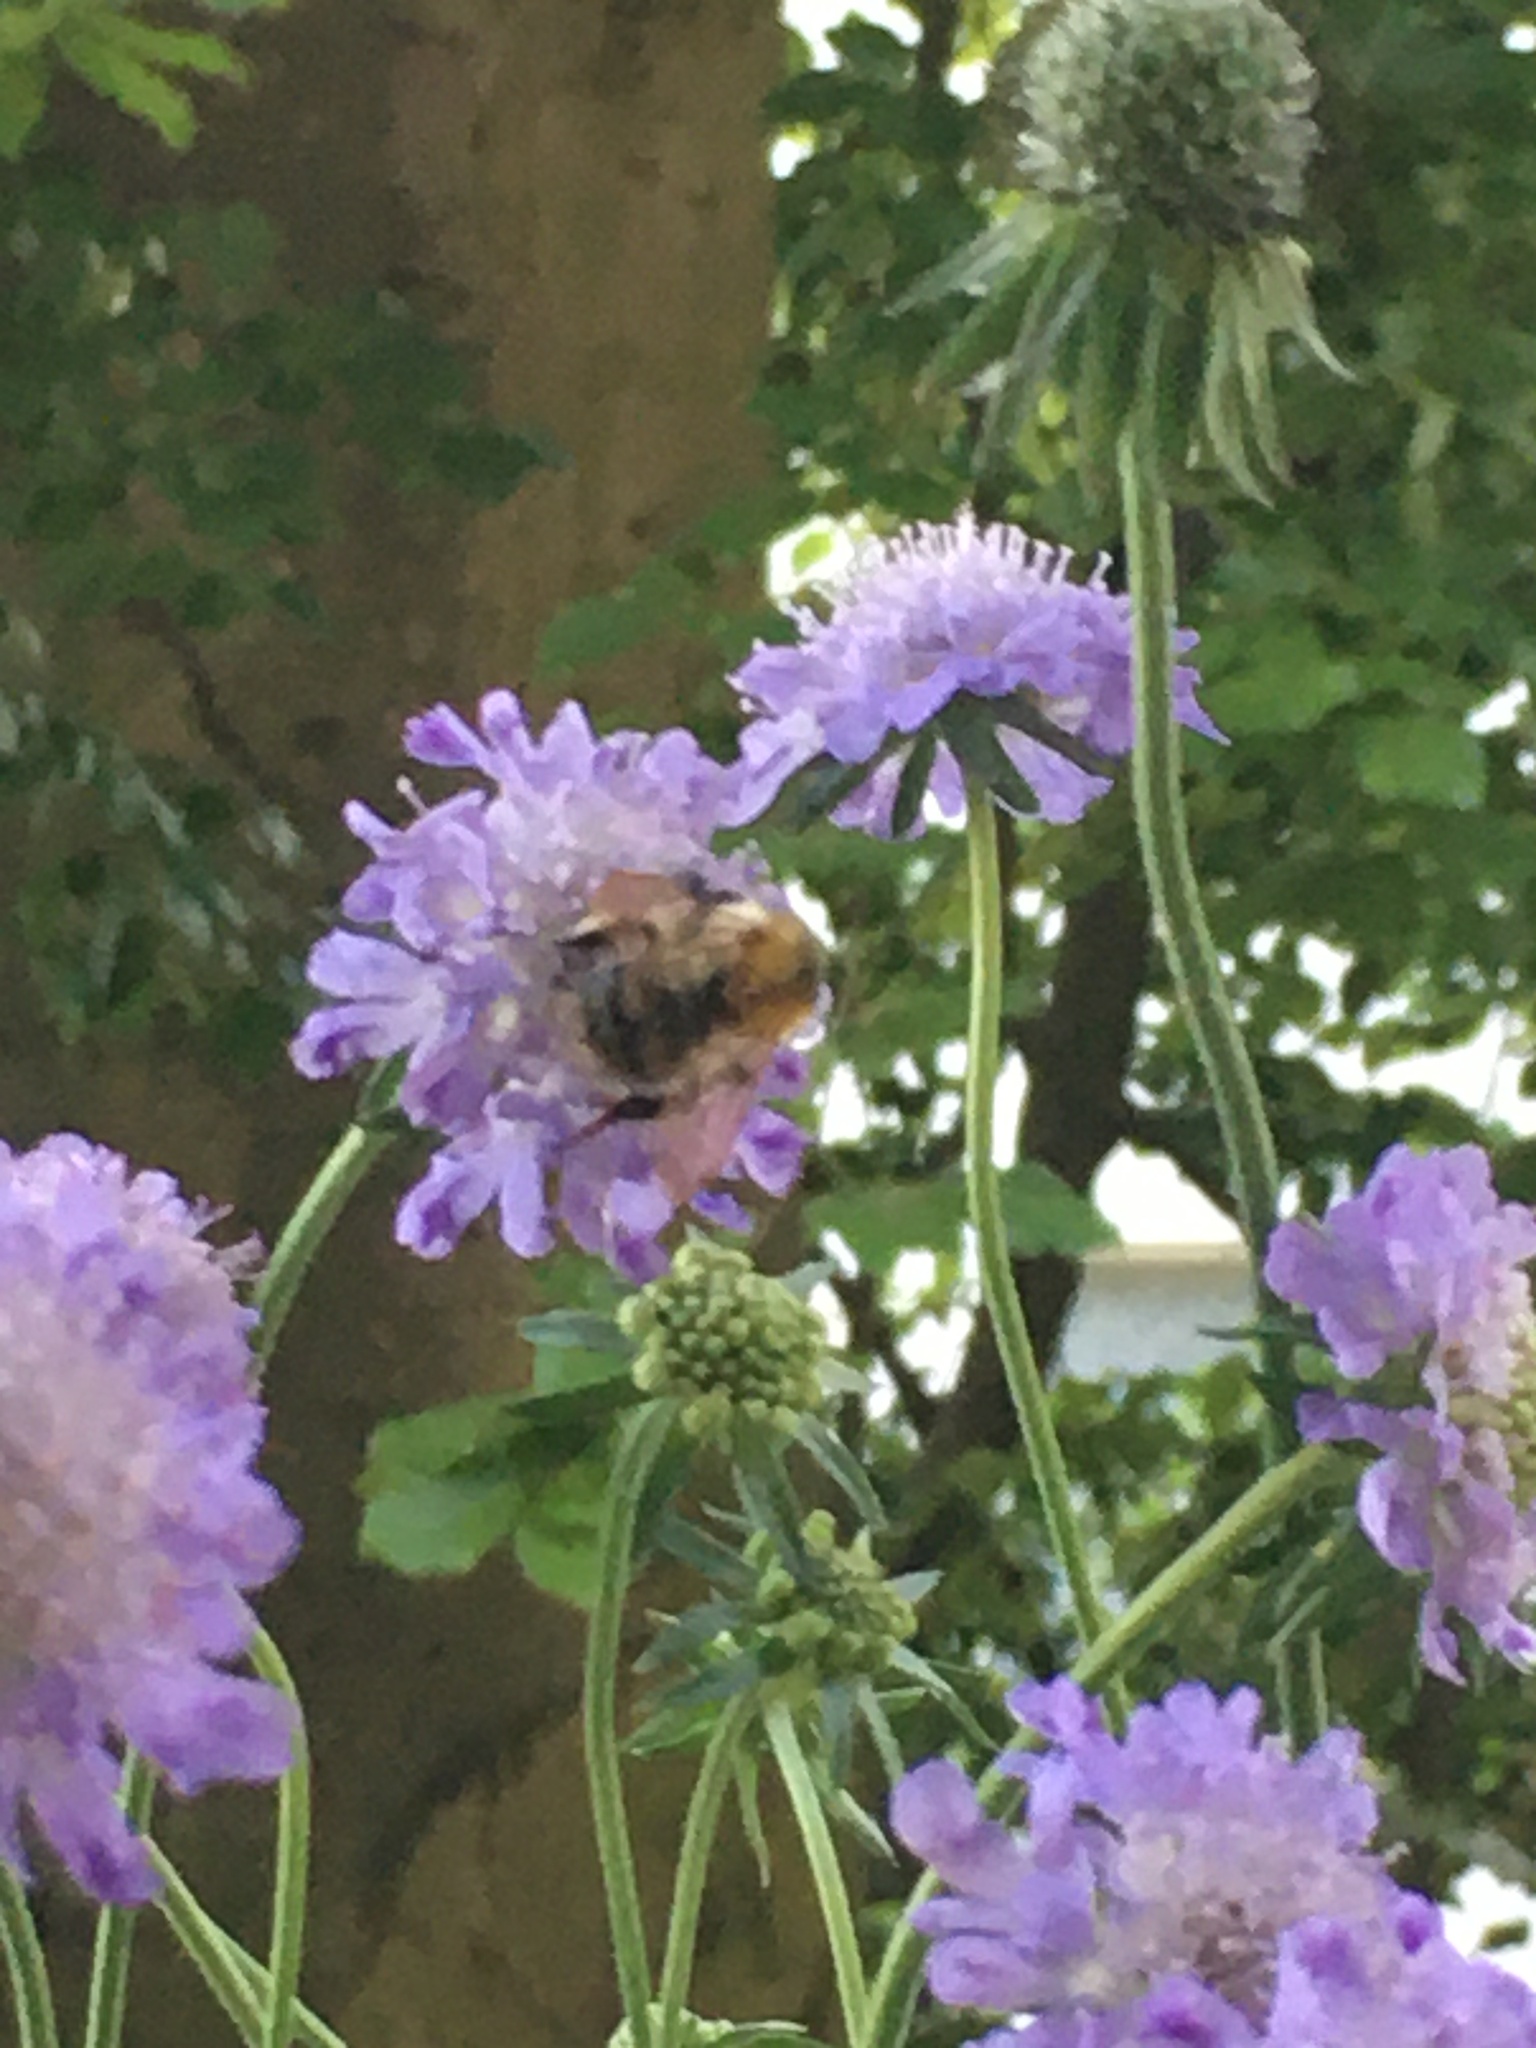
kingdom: Animalia
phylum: Arthropoda
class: Insecta
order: Hymenoptera
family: Apidae
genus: Bombus
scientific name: Bombus pascuorum
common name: Common carder bee
